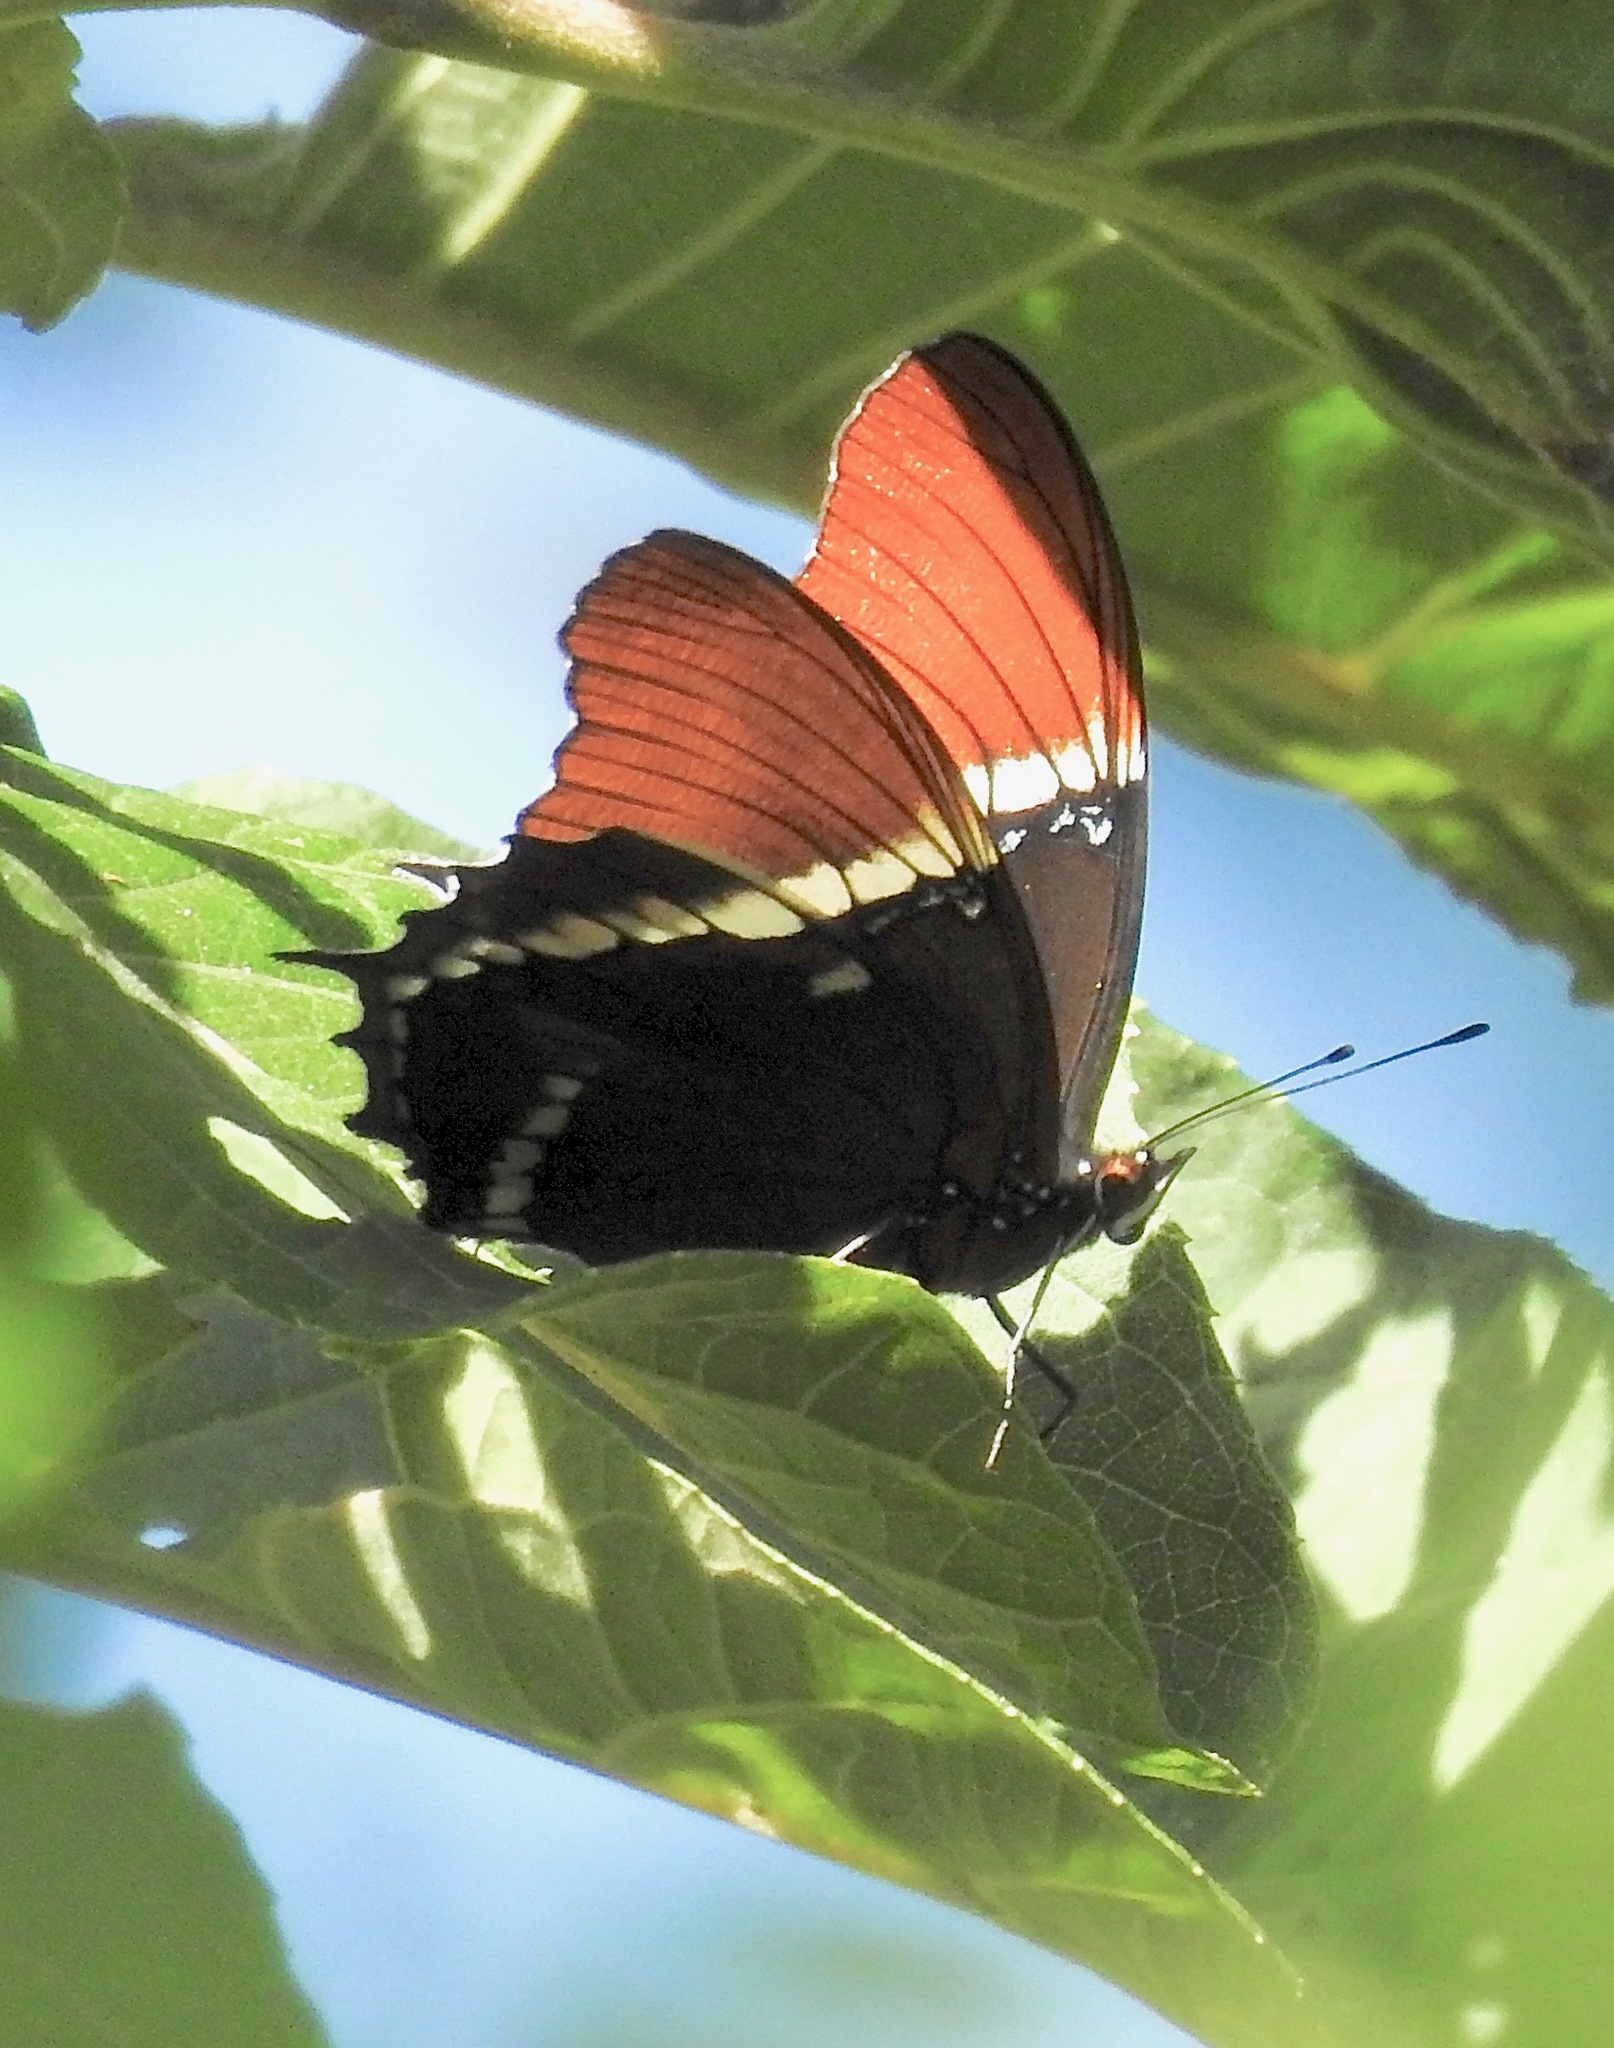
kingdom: Animalia
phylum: Arthropoda
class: Insecta
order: Lepidoptera
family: Nymphalidae
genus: Siproeta
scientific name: Siproeta epaphus
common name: Rusty-tipped page
